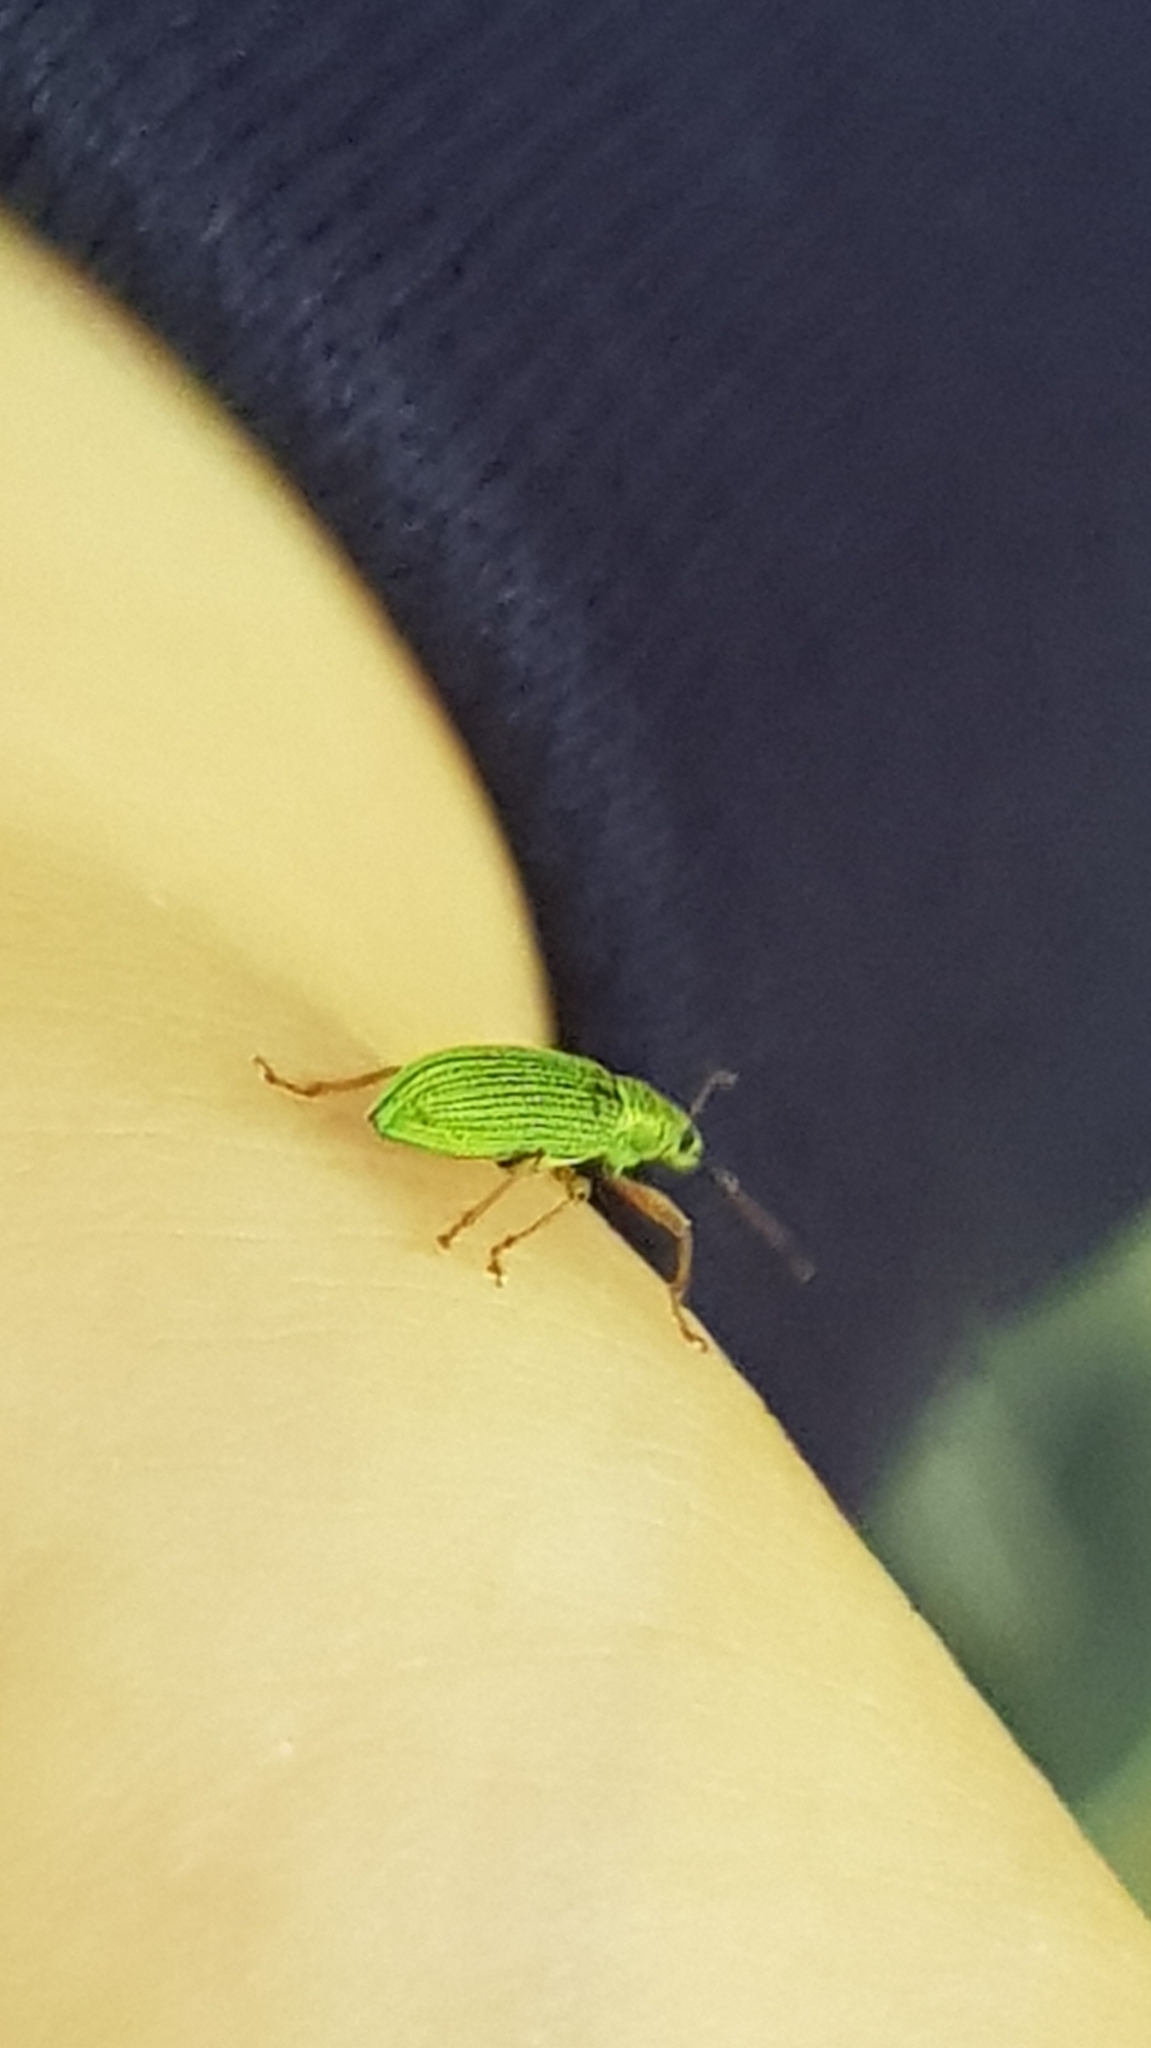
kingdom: Animalia
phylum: Arthropoda
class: Insecta
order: Coleoptera
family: Curculionidae
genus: Polydrusus
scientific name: Polydrusus formosus
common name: Weevil
